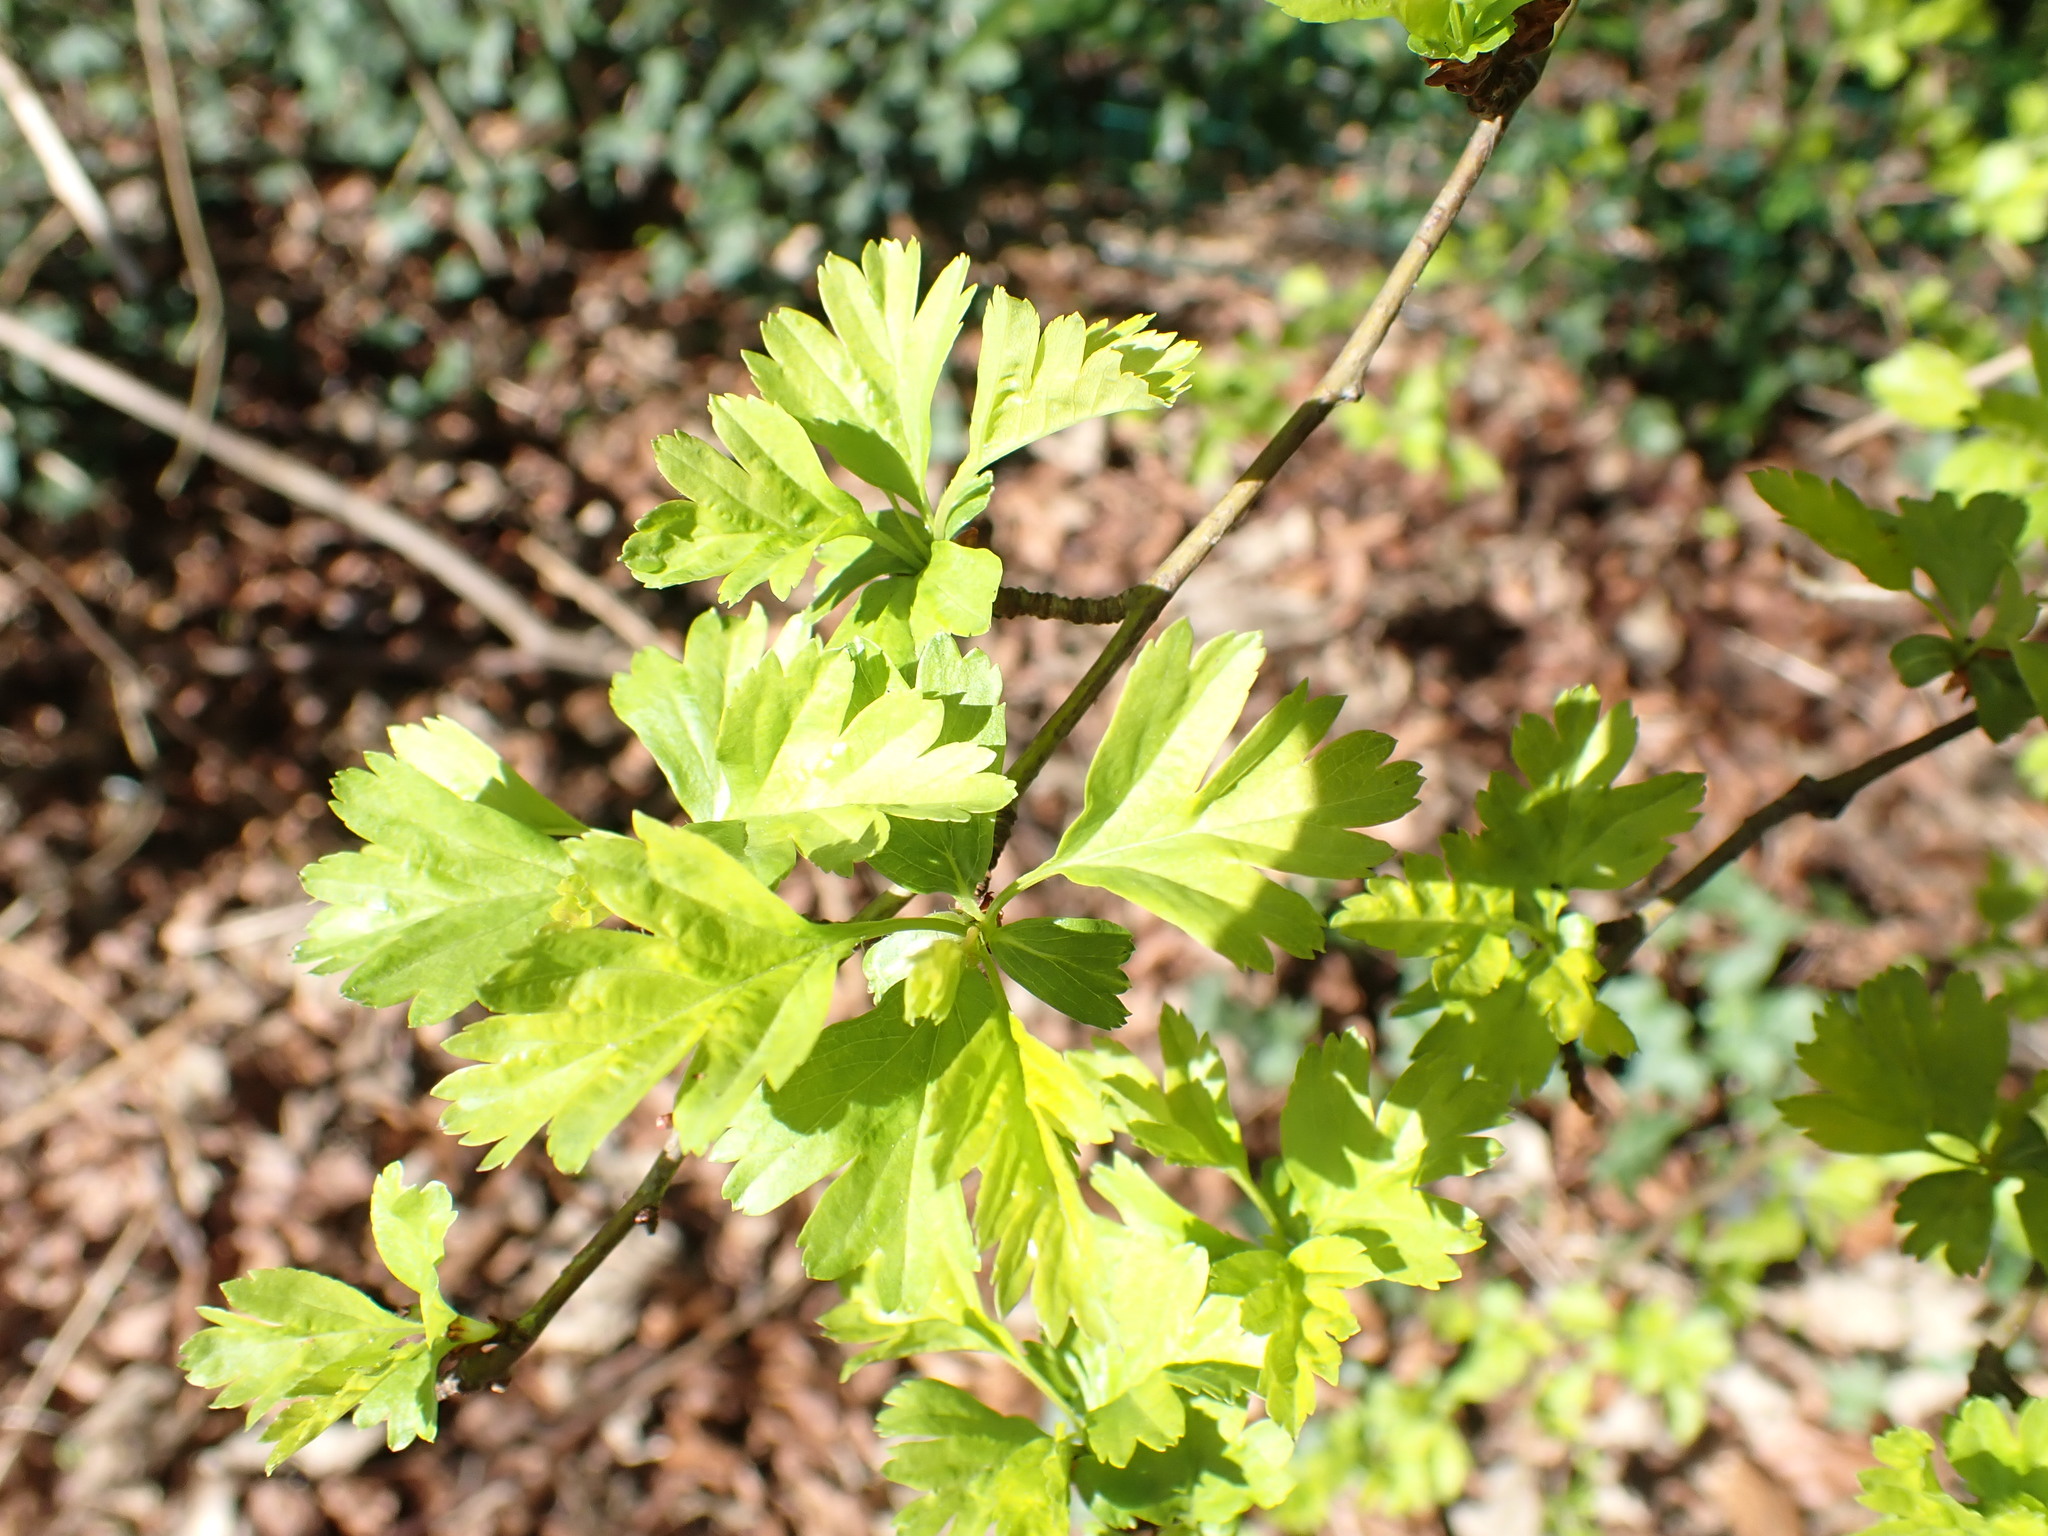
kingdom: Plantae
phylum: Tracheophyta
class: Magnoliopsida
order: Rosales
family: Rosaceae
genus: Crataegus
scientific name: Crataegus monogyna
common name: Hawthorn
